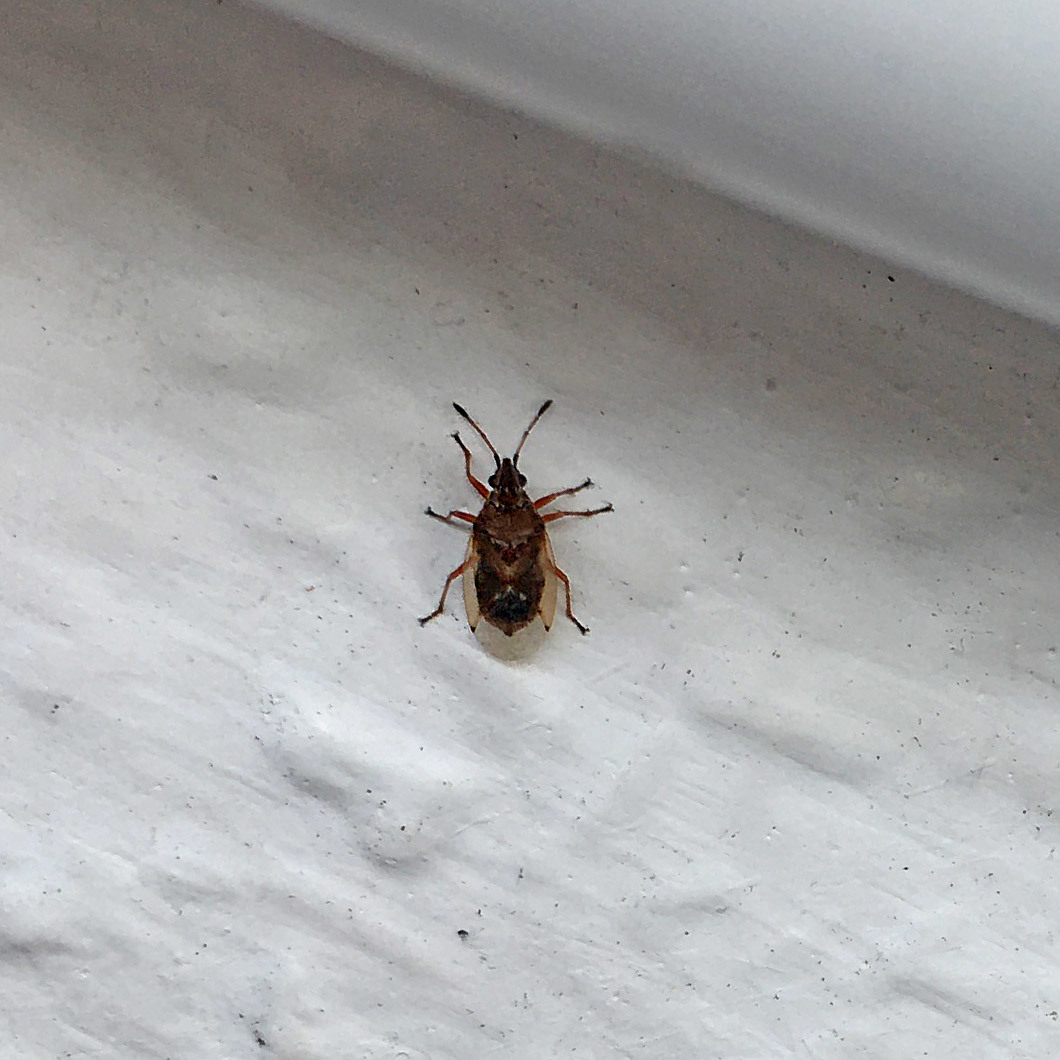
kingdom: Animalia
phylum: Arthropoda
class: Insecta
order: Hemiptera
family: Lygaeidae
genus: Kleidocerys
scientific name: Kleidocerys resedae
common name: Birch catkin bug
